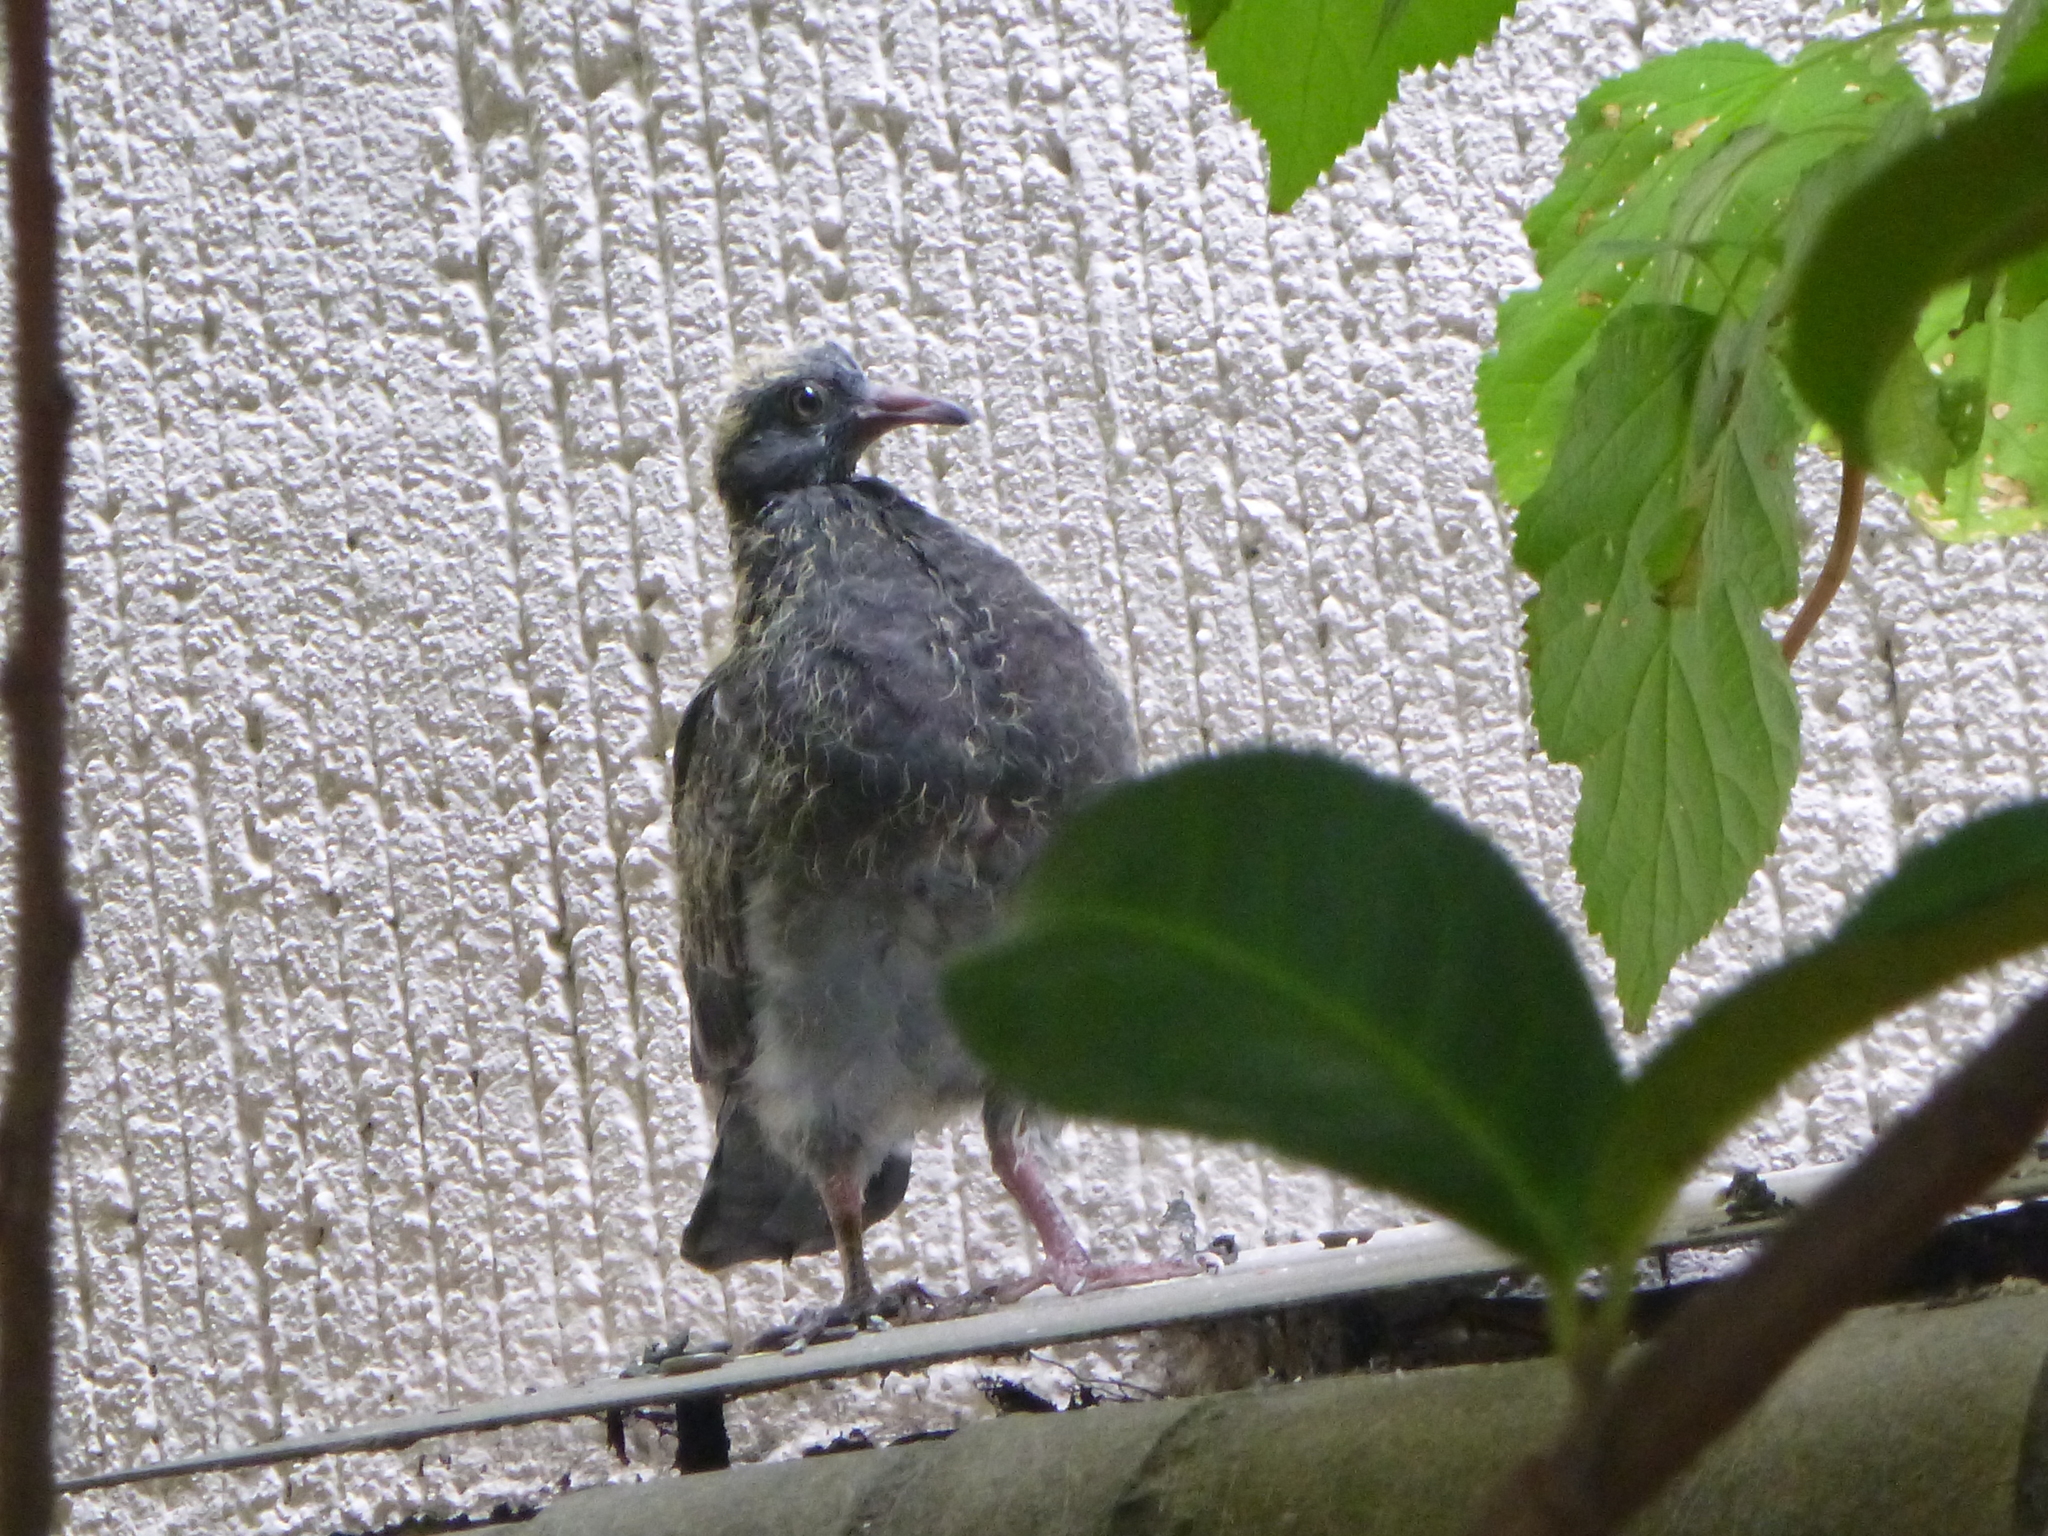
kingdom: Animalia
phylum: Chordata
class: Aves
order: Columbiformes
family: Columbidae
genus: Columba
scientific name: Columba livia
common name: Rock pigeon
